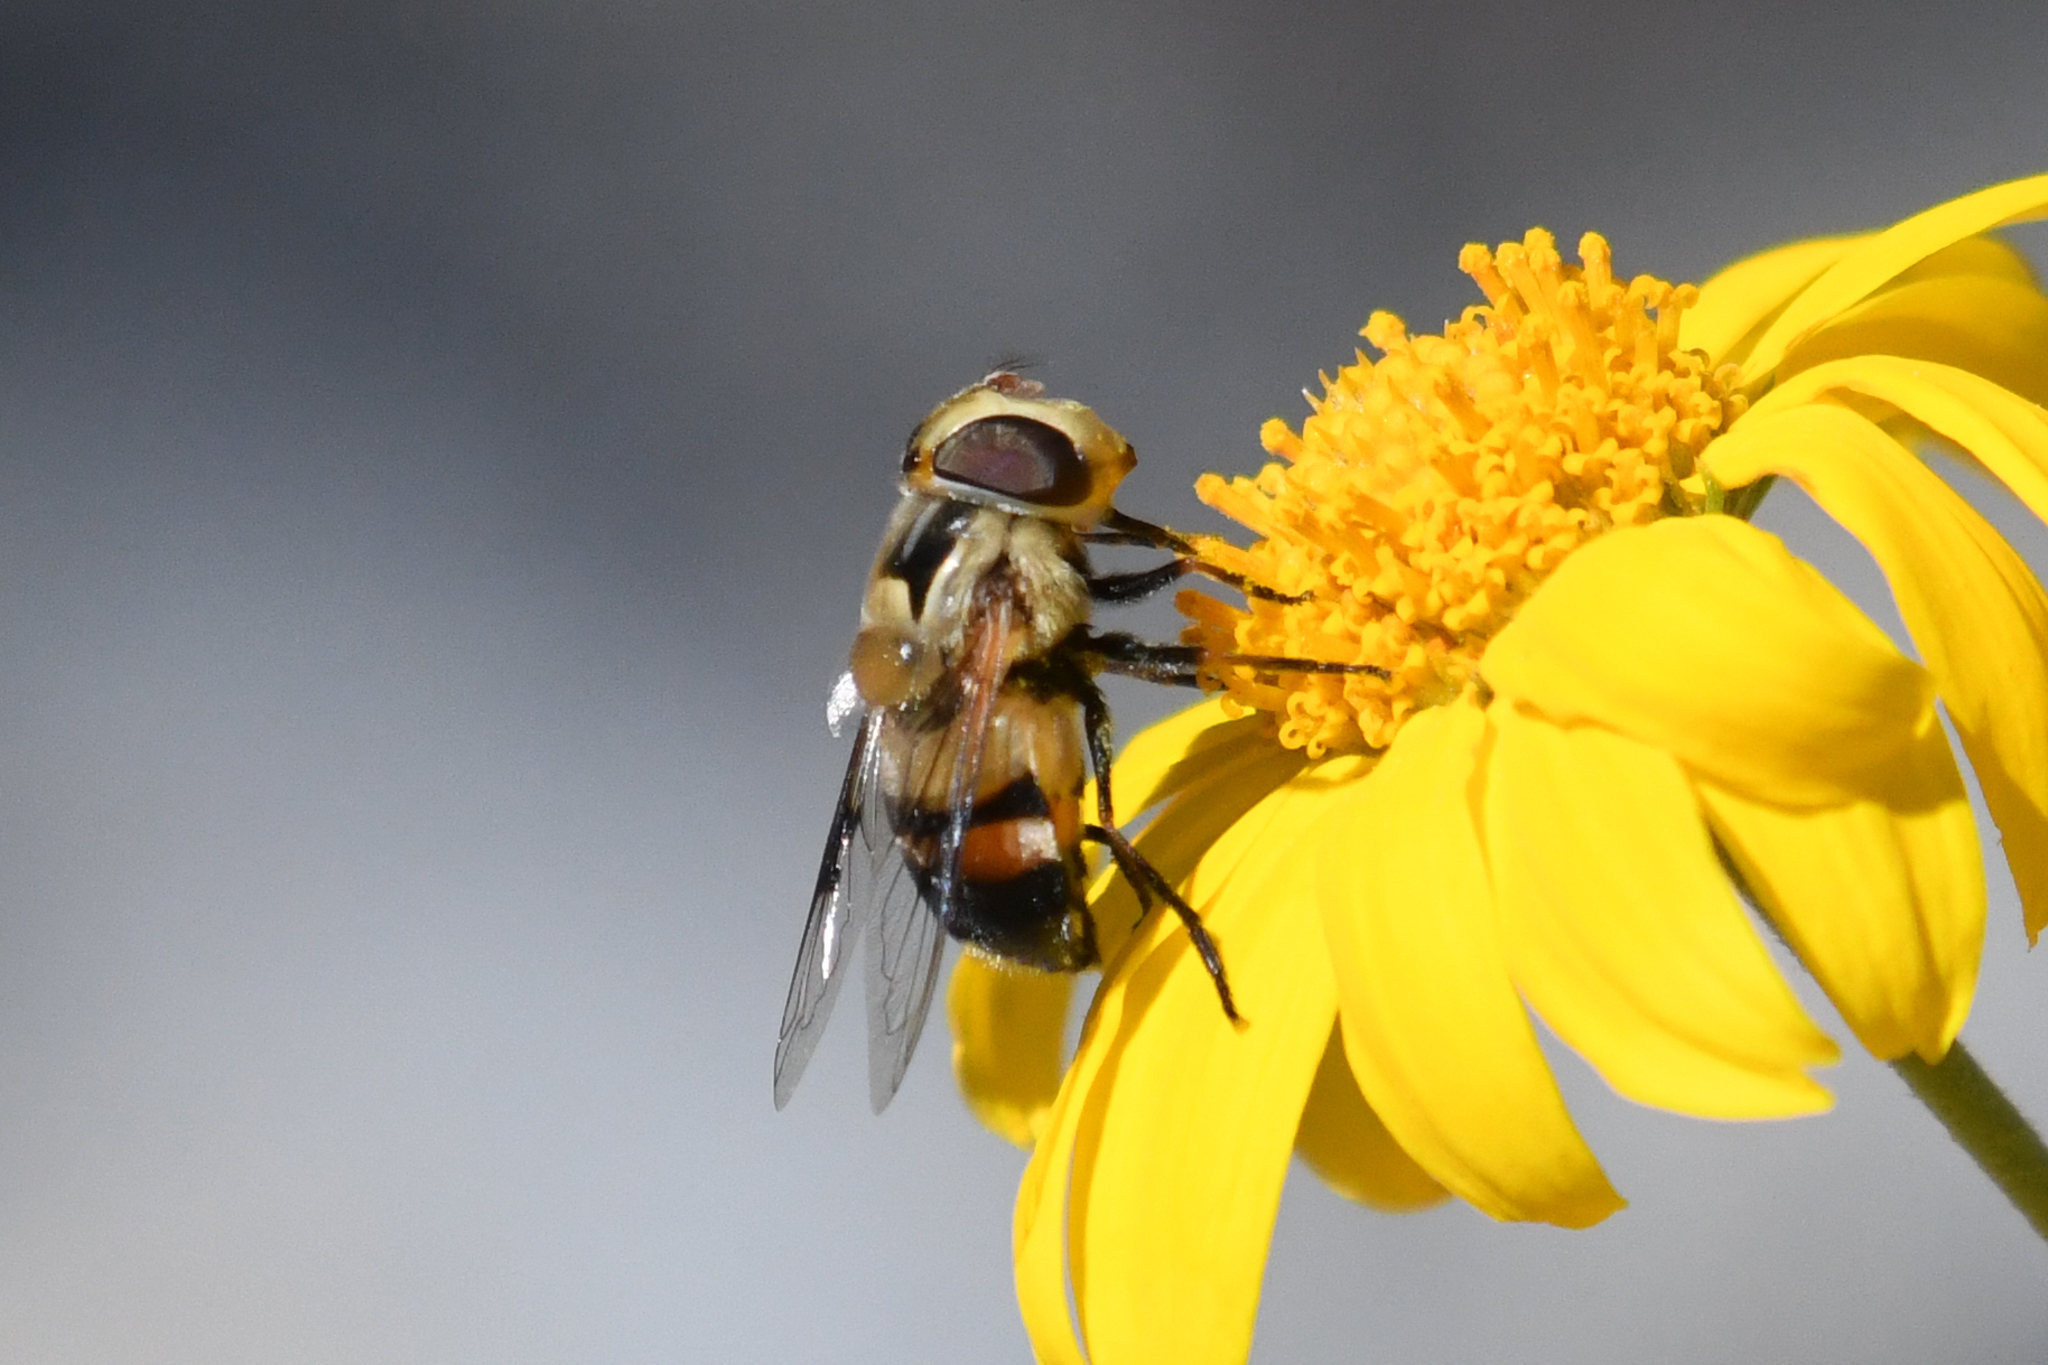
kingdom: Animalia
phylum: Arthropoda
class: Insecta
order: Diptera
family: Syrphidae
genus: Copestylum
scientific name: Copestylum apiciferum
